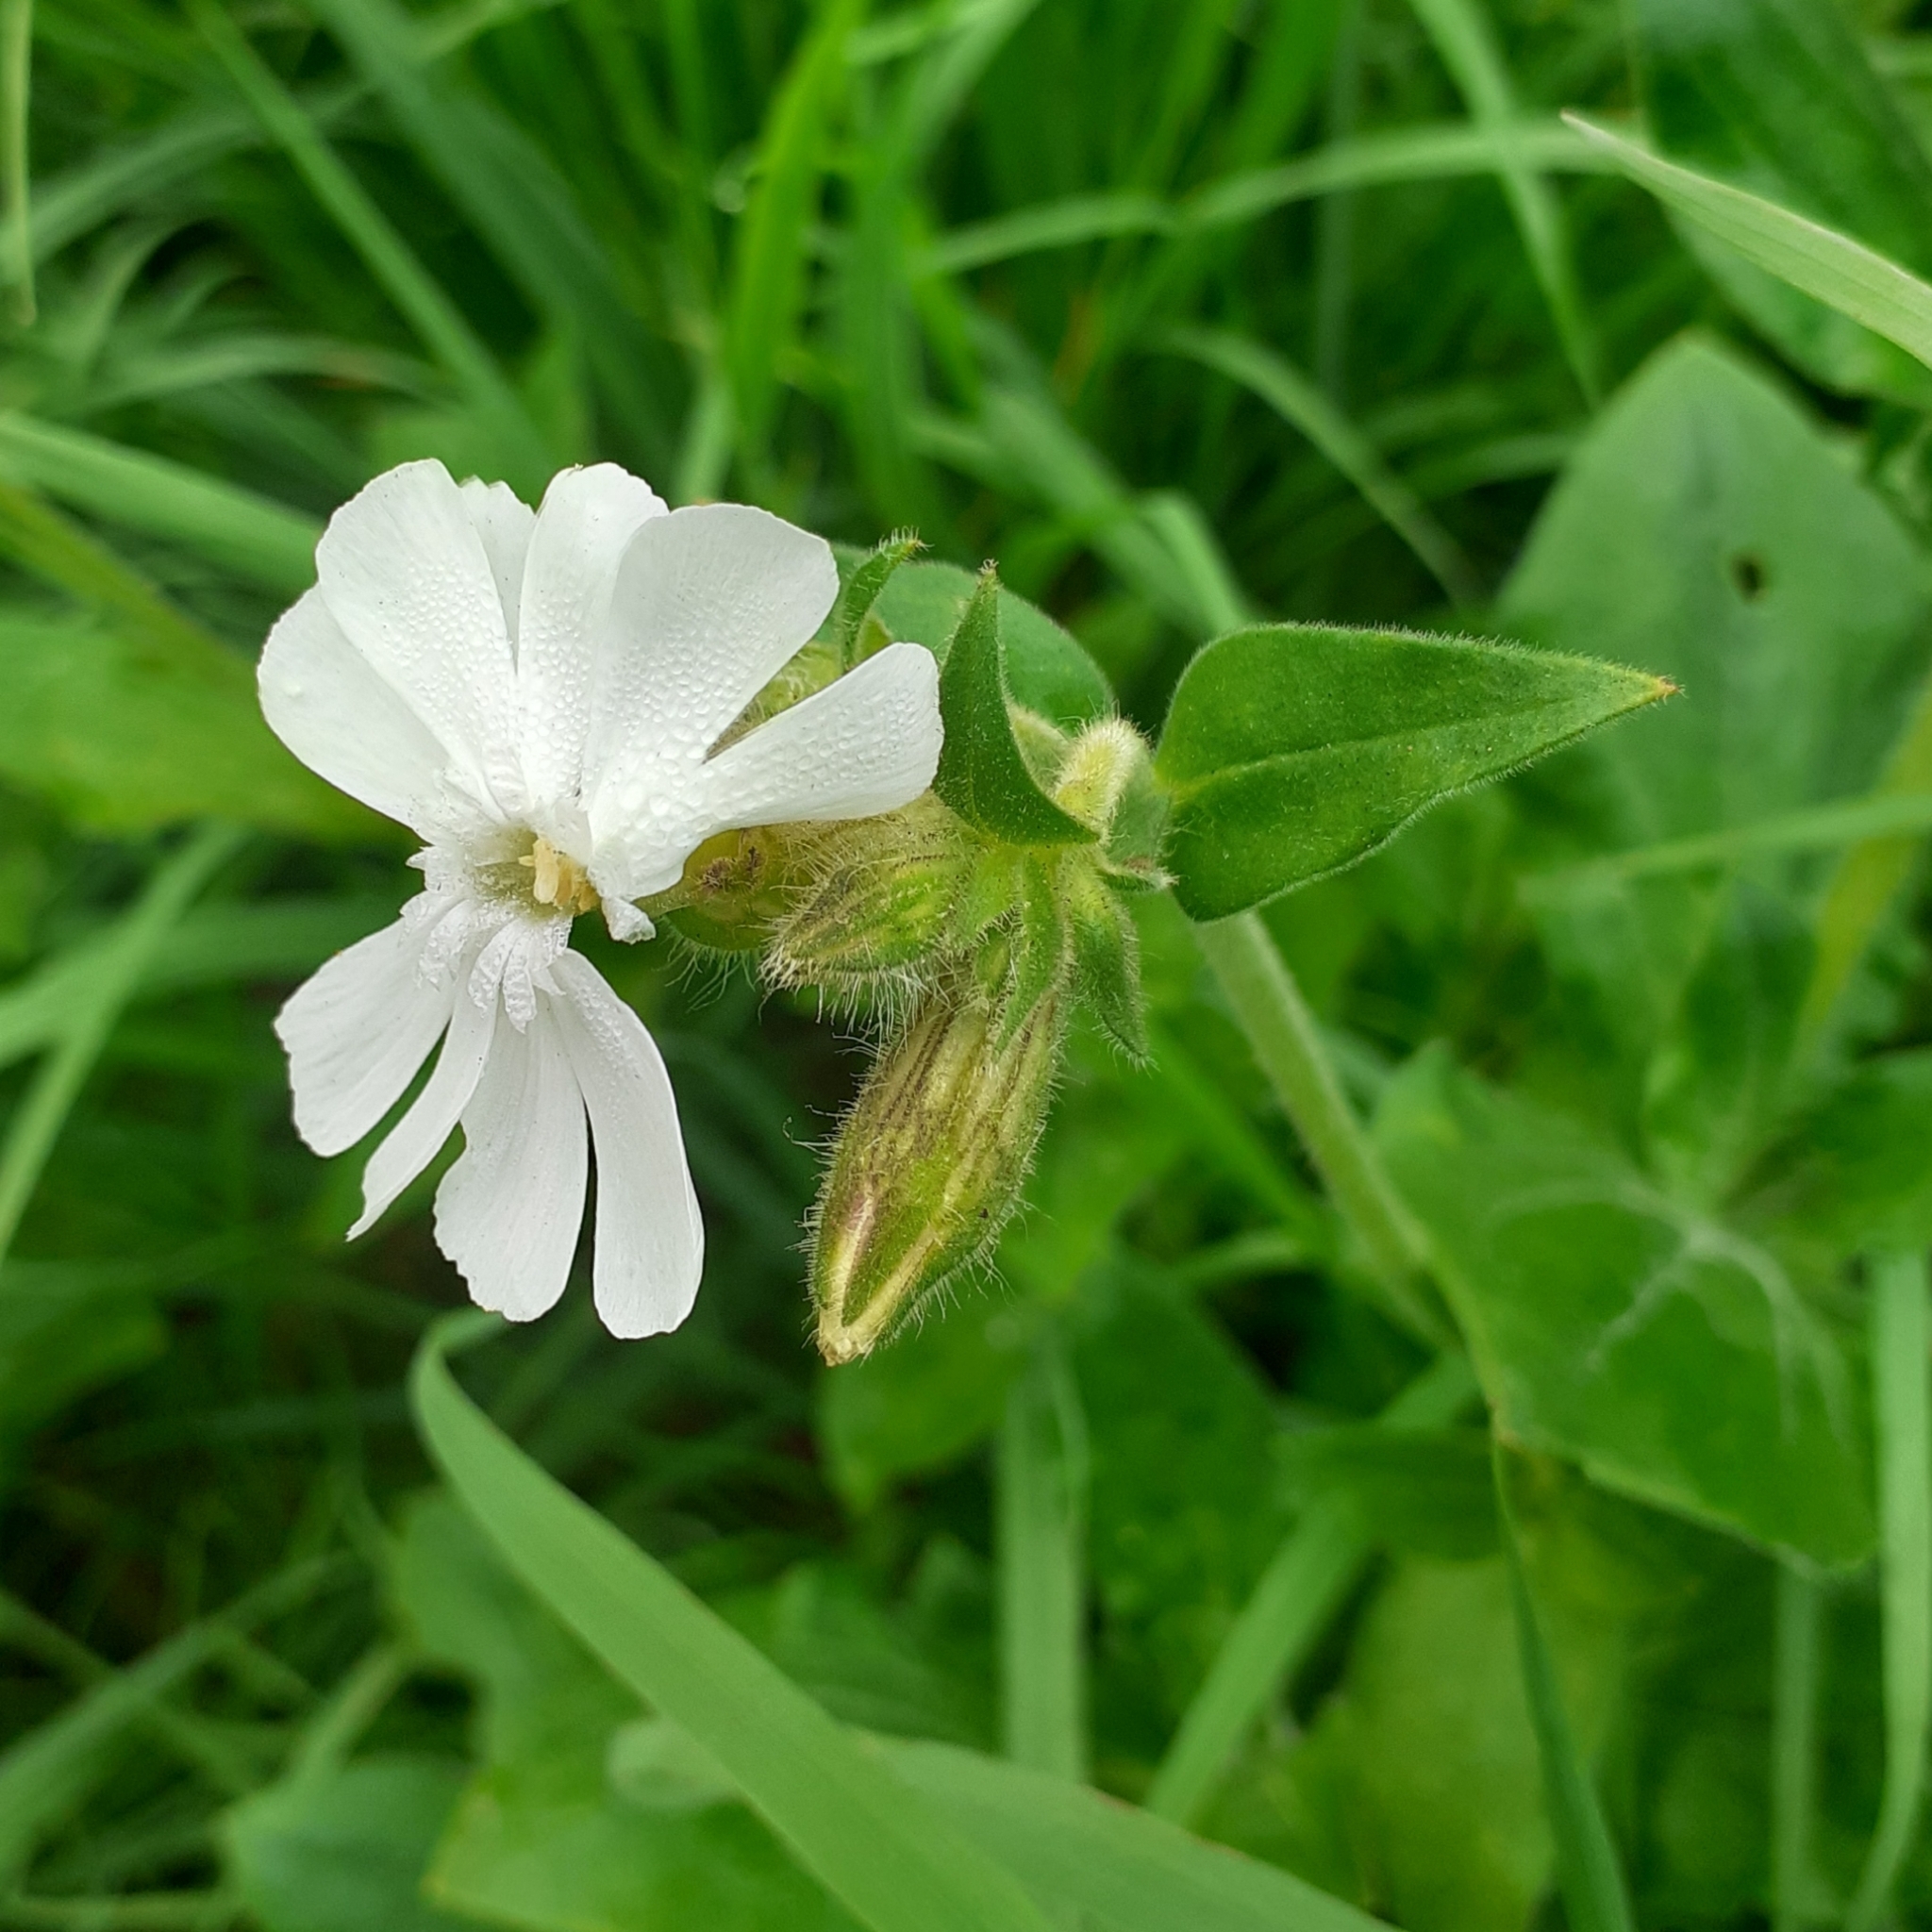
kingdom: Plantae
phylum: Tracheophyta
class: Magnoliopsida
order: Caryophyllales
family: Caryophyllaceae
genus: Silene
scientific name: Silene latifolia
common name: White campion
